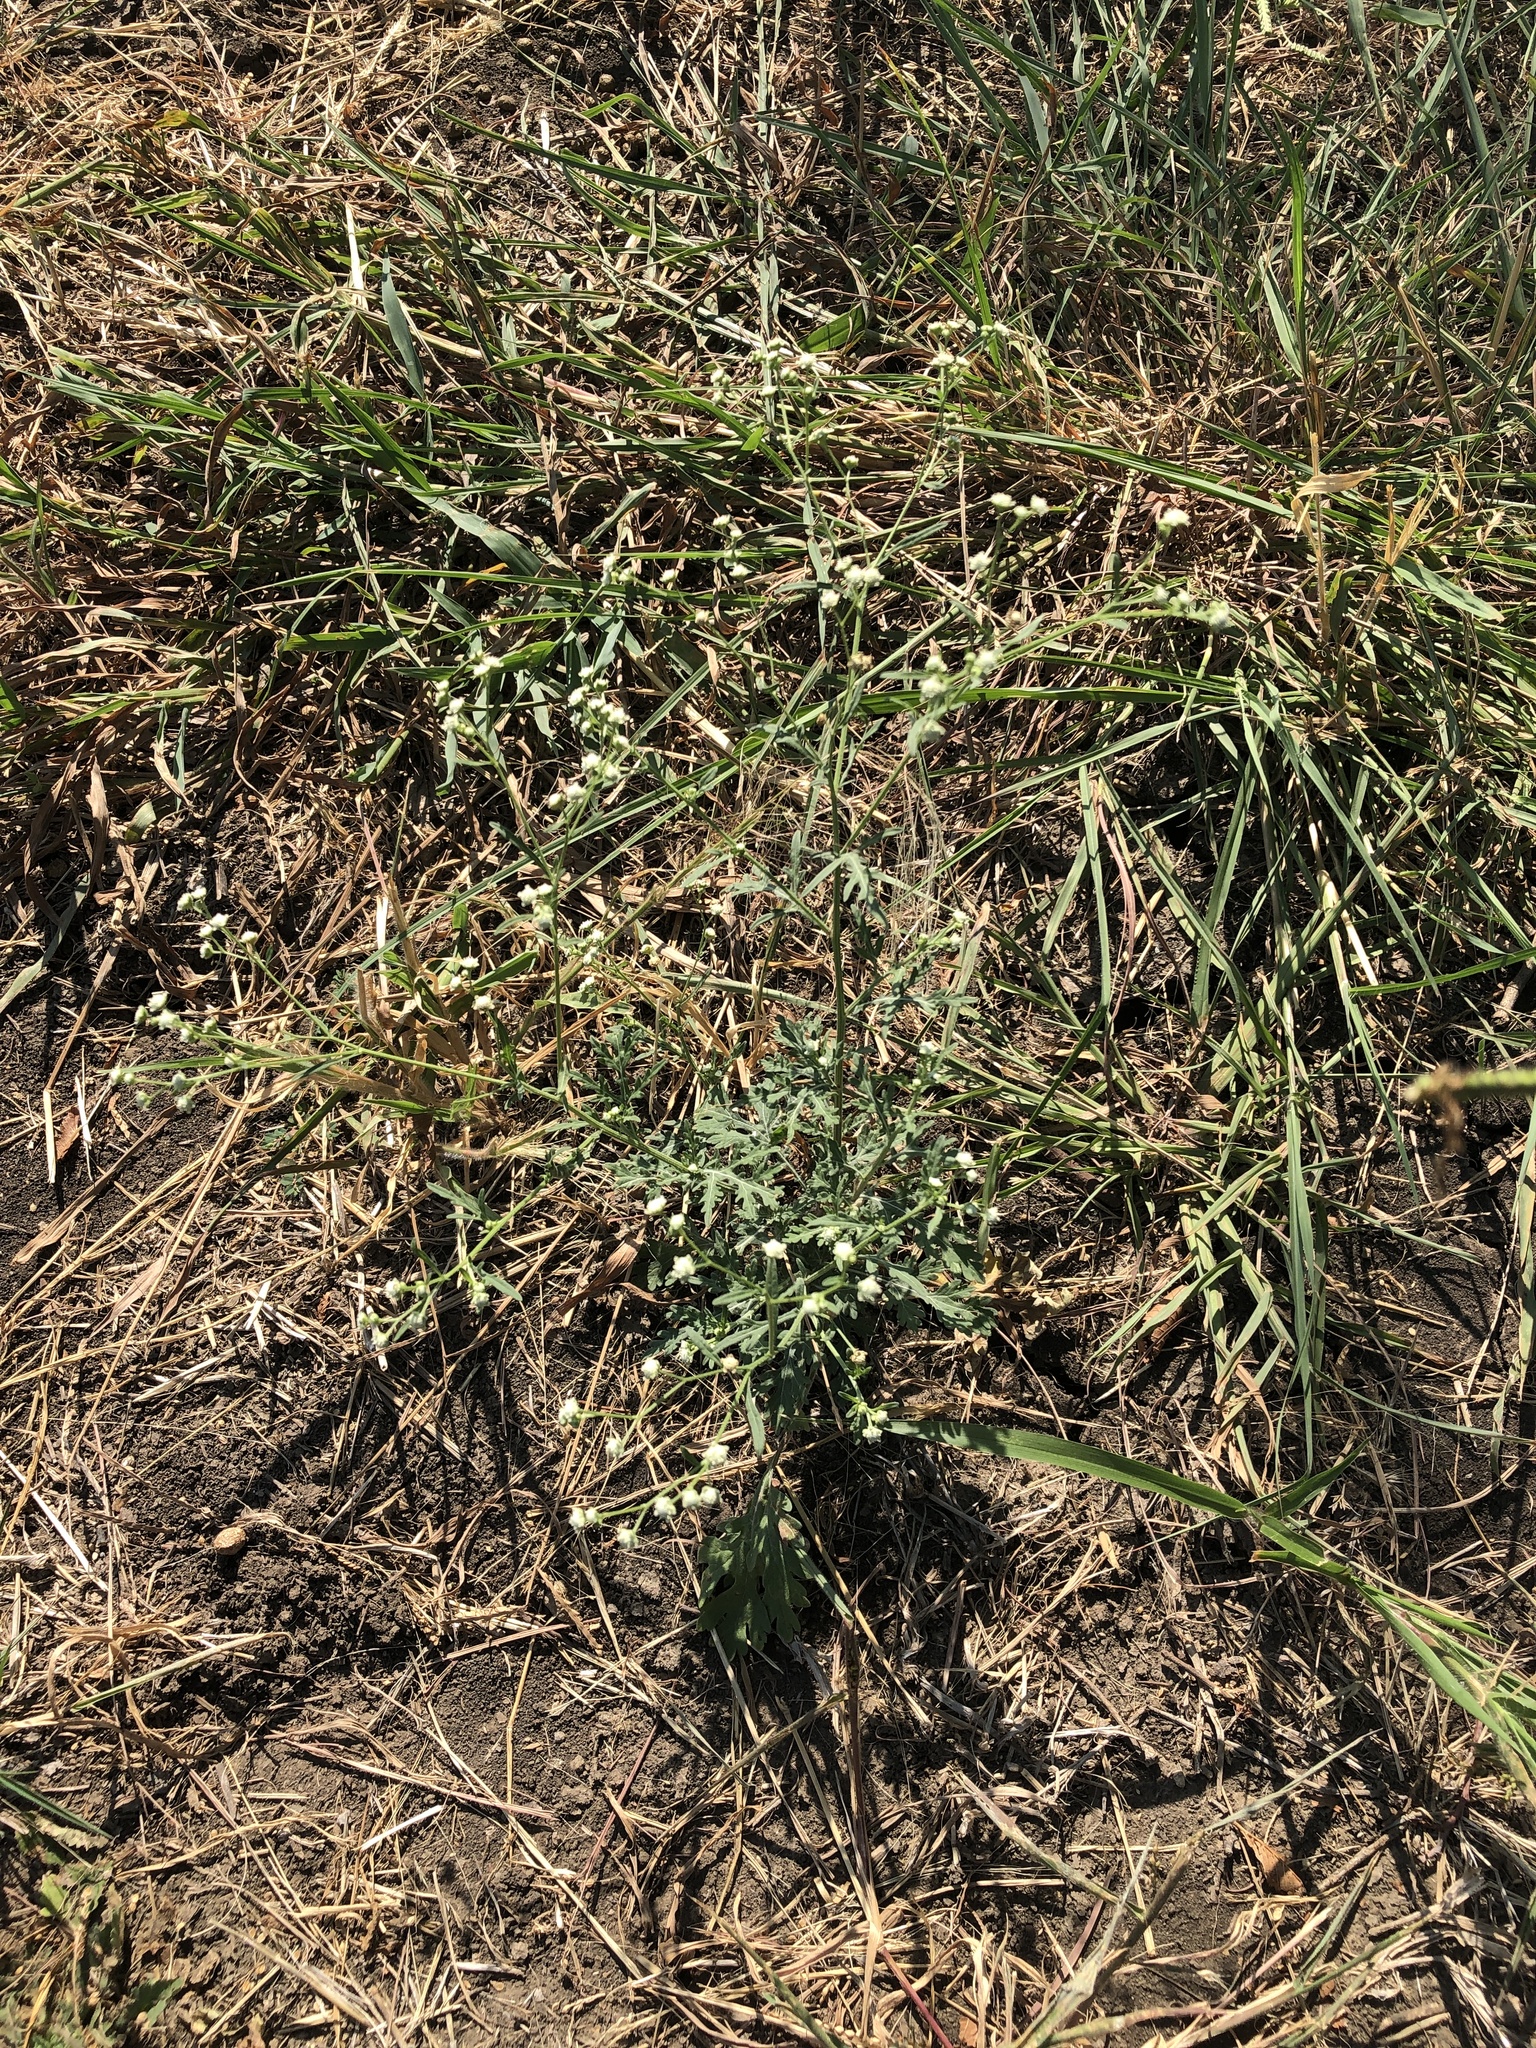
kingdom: Plantae
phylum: Tracheophyta
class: Magnoliopsida
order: Asterales
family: Asteraceae
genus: Parthenium
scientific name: Parthenium hysterophorus
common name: Santa maria feverfew
